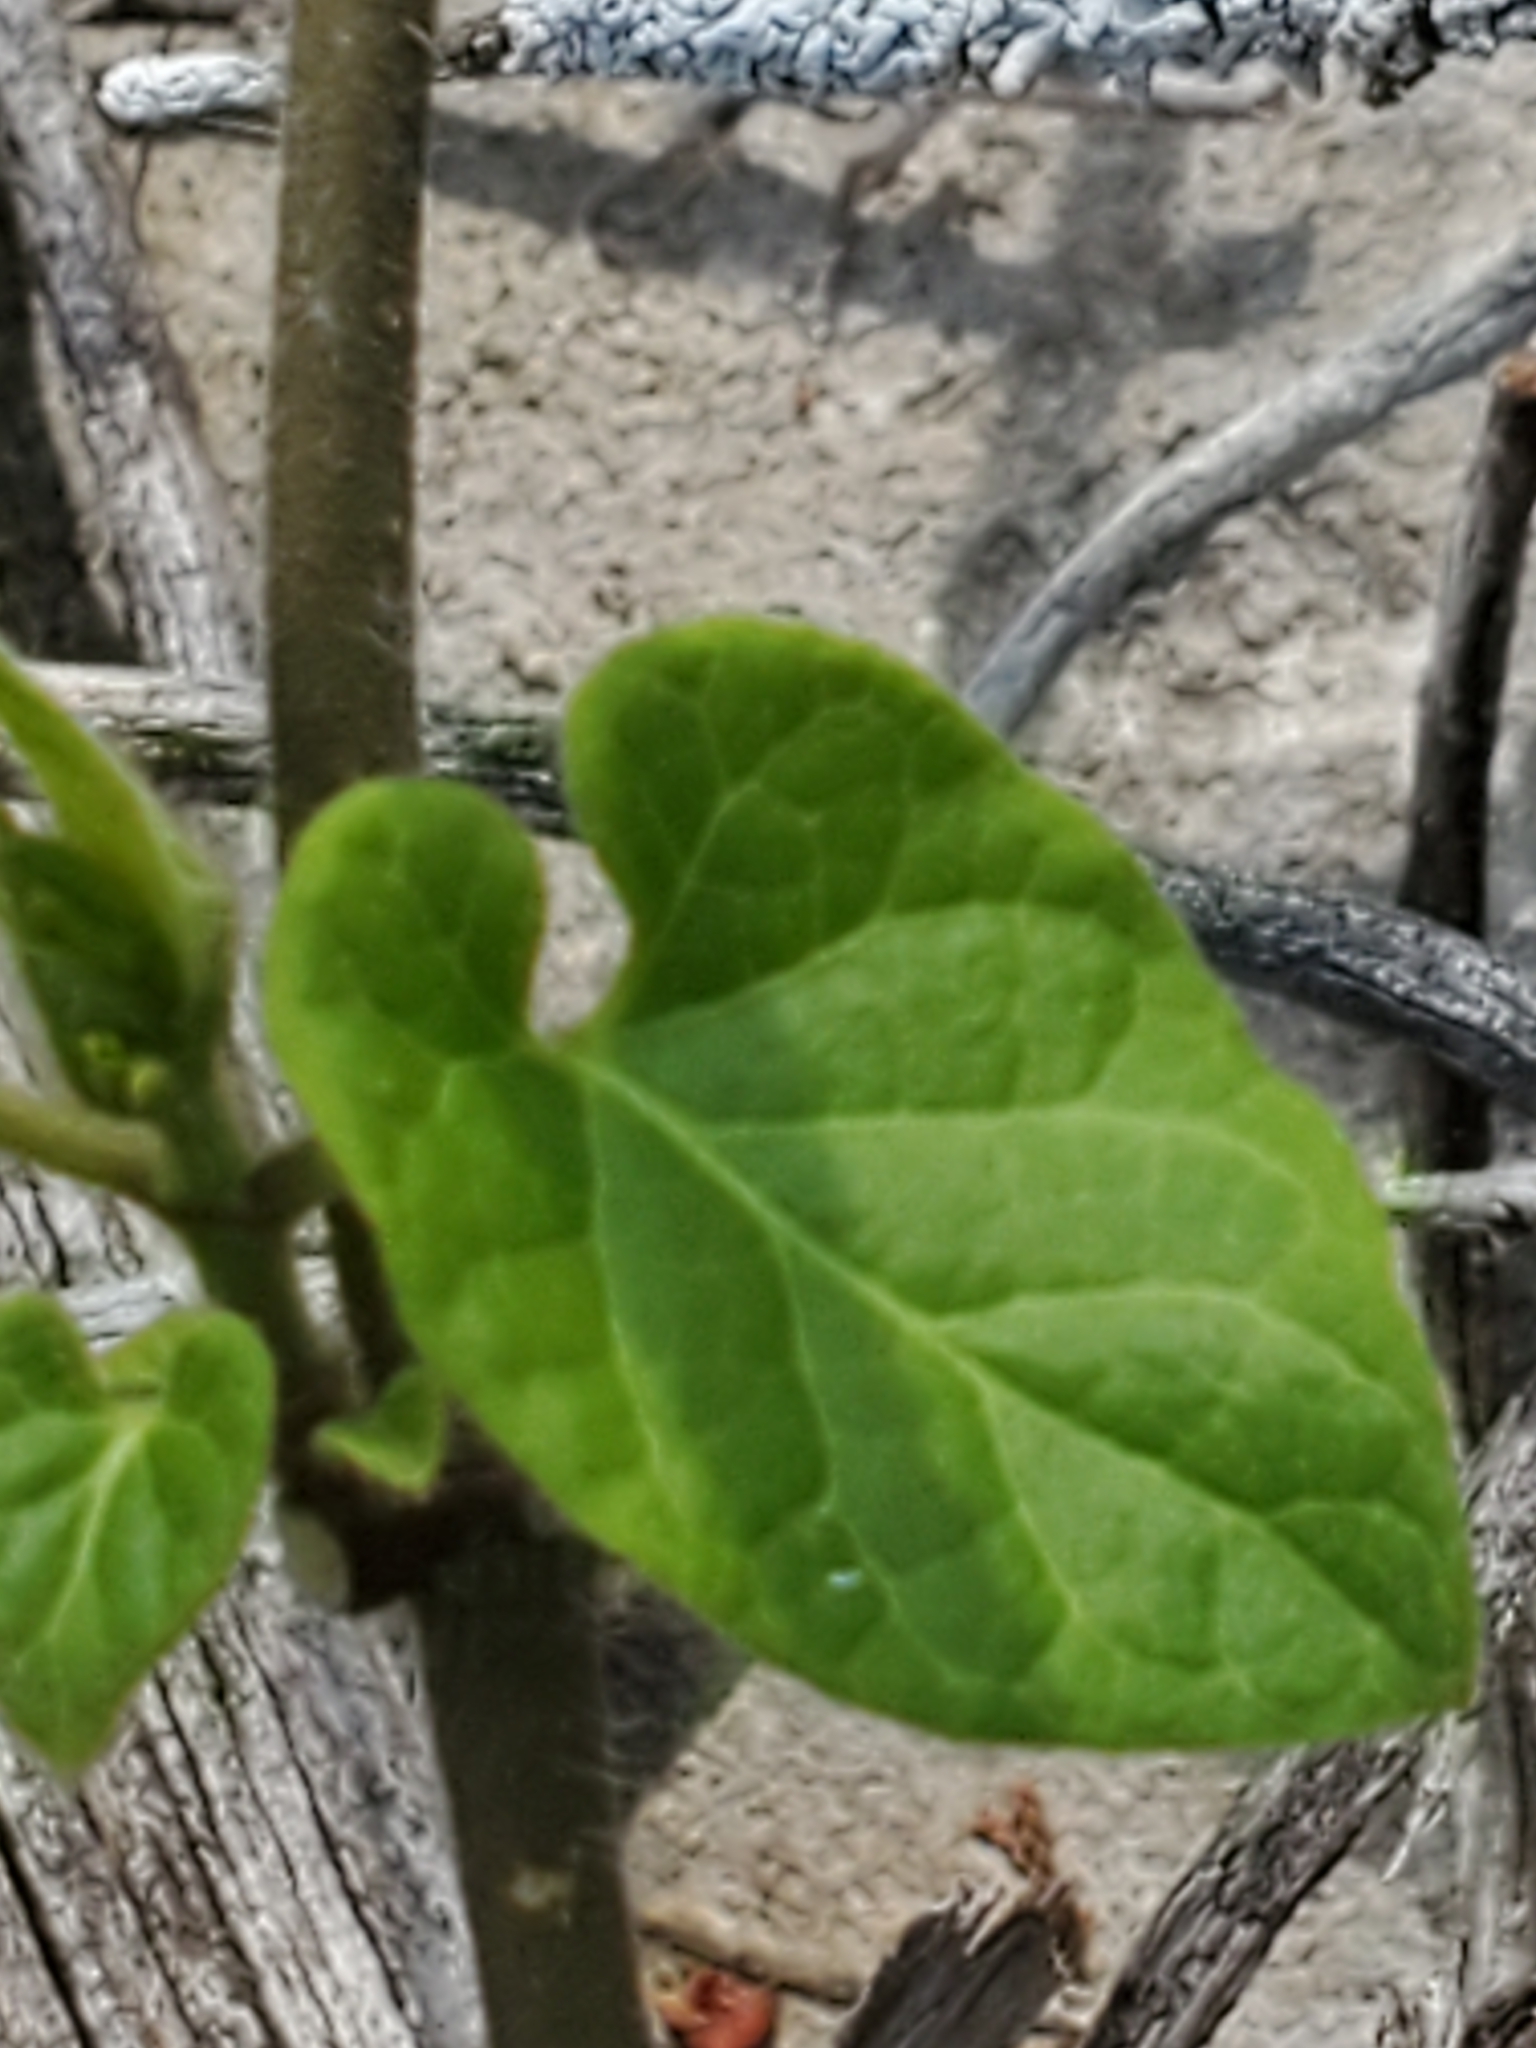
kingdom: Plantae
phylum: Tracheophyta
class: Magnoliopsida
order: Gentianales
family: Apocynaceae
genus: Dictyanthus
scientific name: Dictyanthus reticulatus
